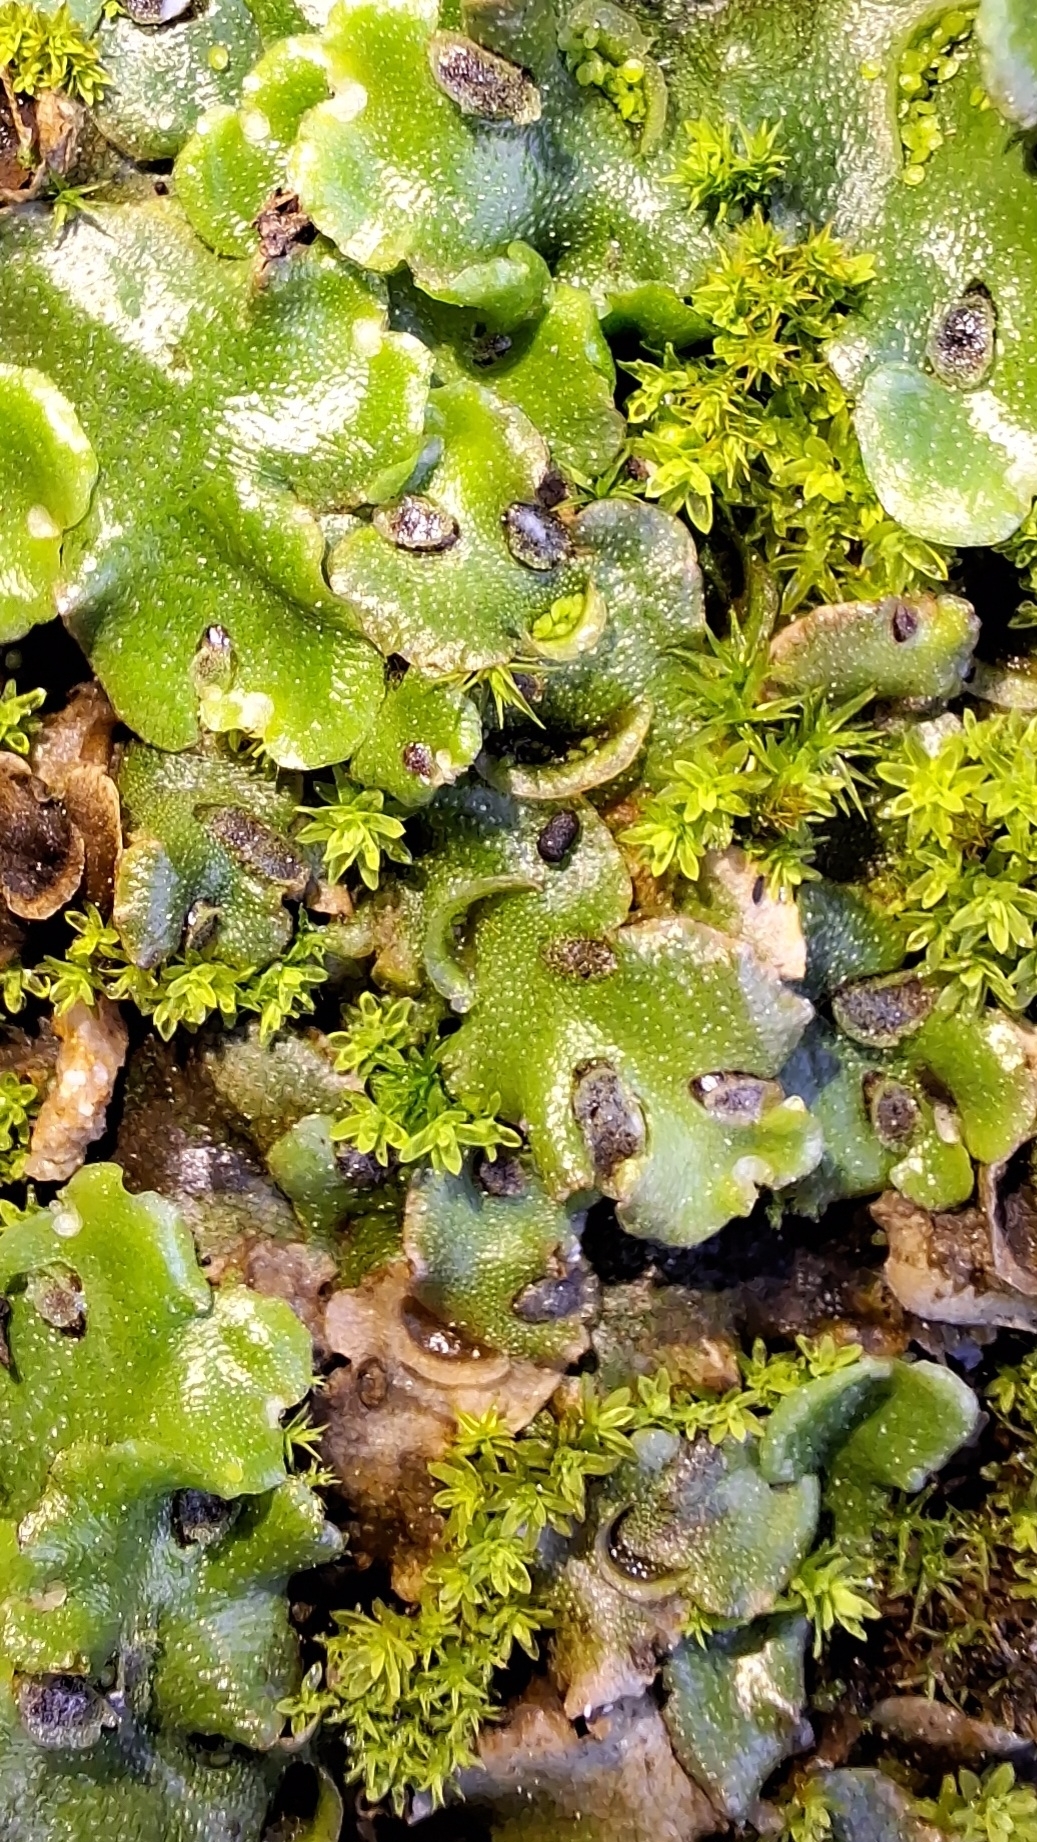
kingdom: Plantae
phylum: Marchantiophyta
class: Marchantiopsida
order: Lunulariales
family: Lunulariaceae
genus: Lunularia
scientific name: Lunularia cruciata
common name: Crescent-cup liverwort
